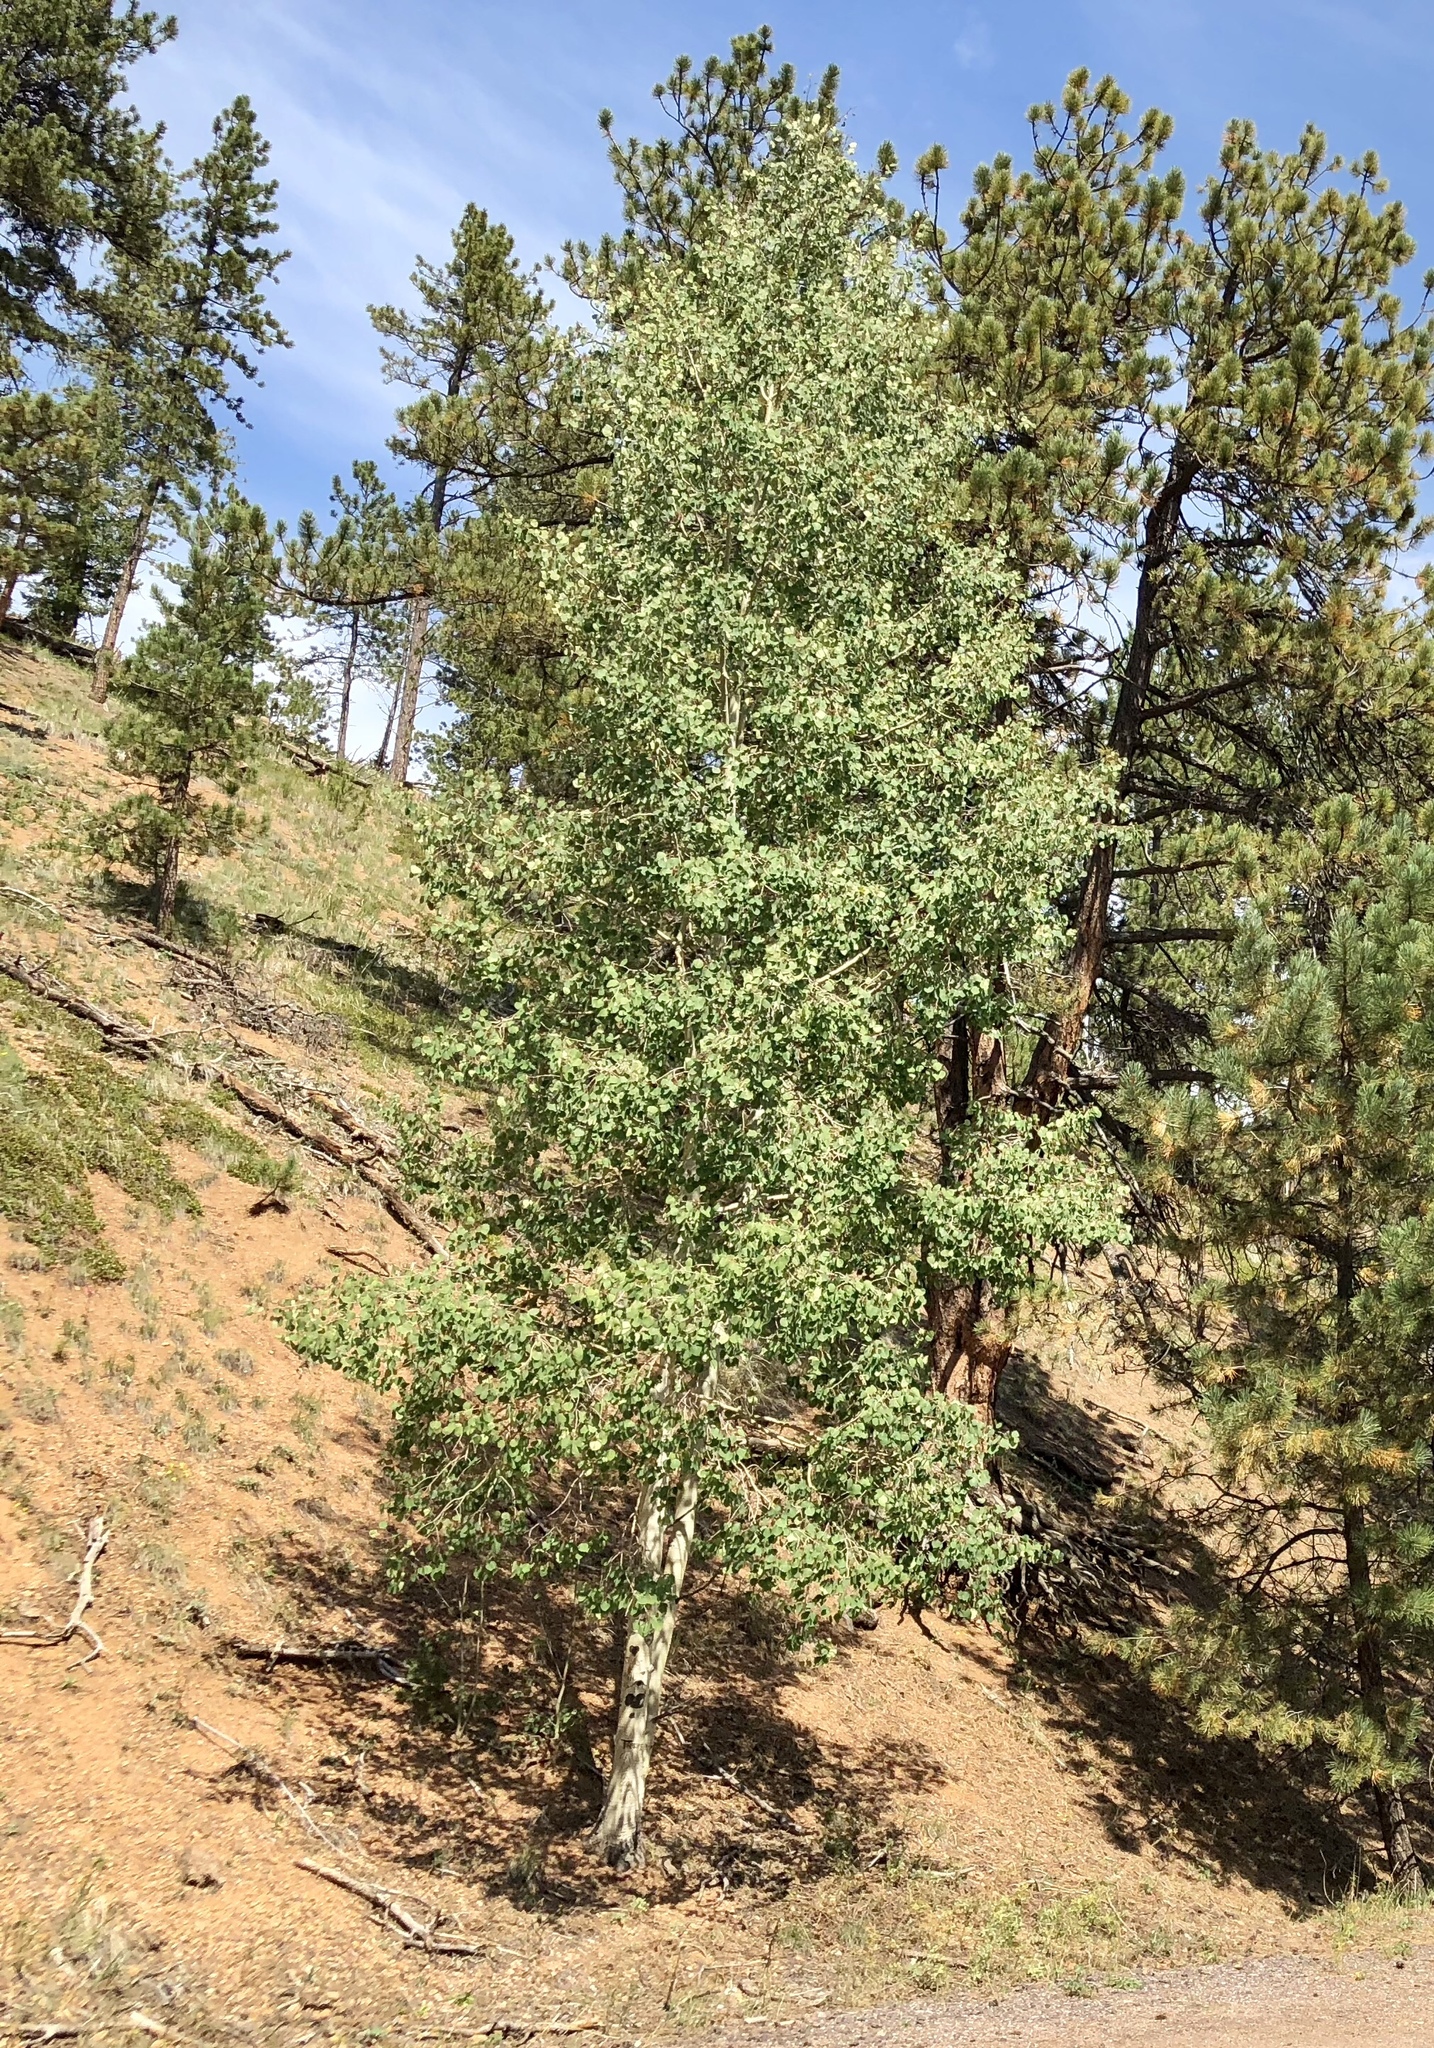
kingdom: Plantae
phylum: Tracheophyta
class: Magnoliopsida
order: Malpighiales
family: Salicaceae
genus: Populus
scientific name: Populus tremuloides
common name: Quaking aspen
